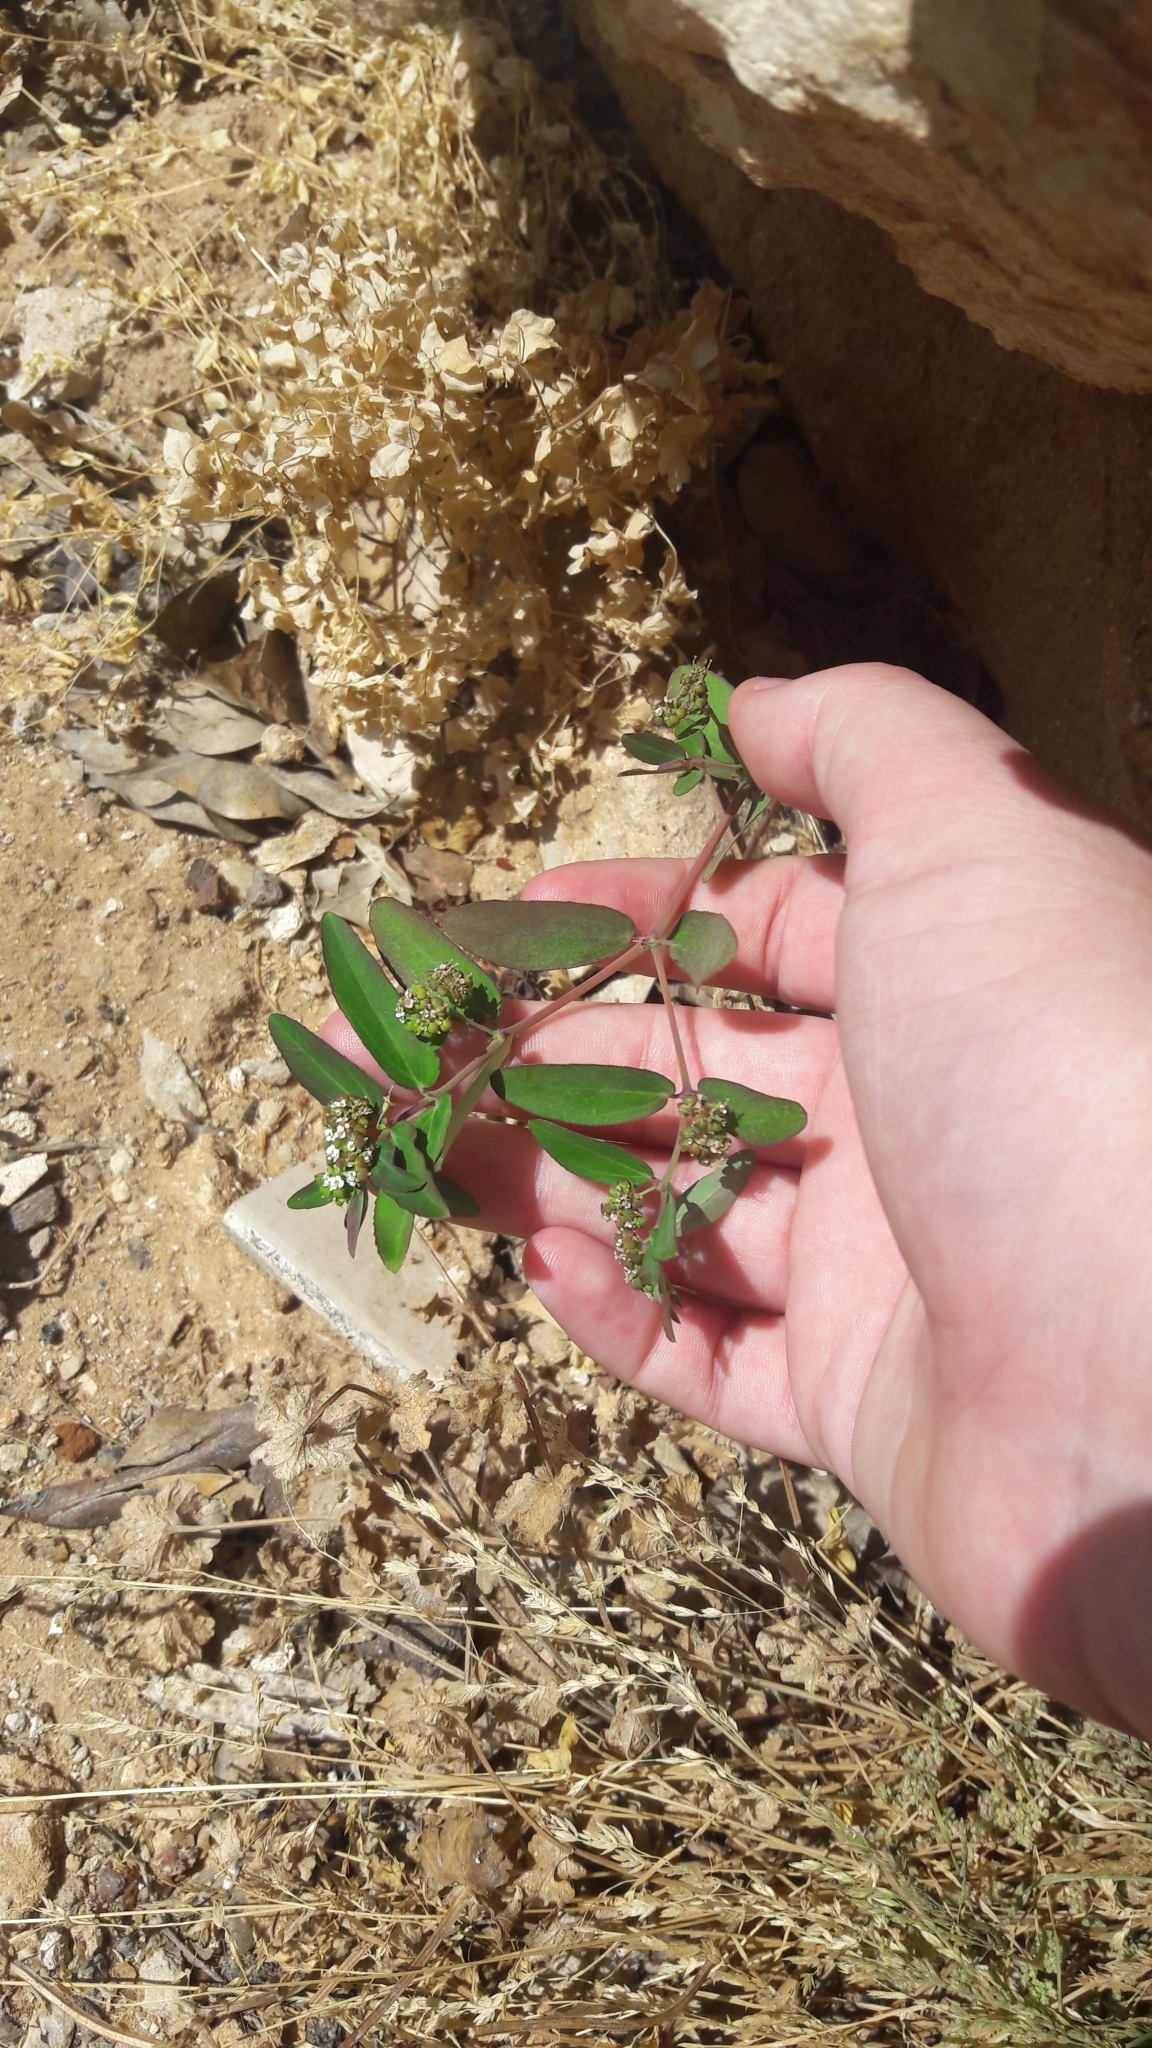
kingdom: Plantae
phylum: Tracheophyta
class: Magnoliopsida
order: Malpighiales
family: Euphorbiaceae
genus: Euphorbia
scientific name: Euphorbia hypericifolia
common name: Graceful sandmat
